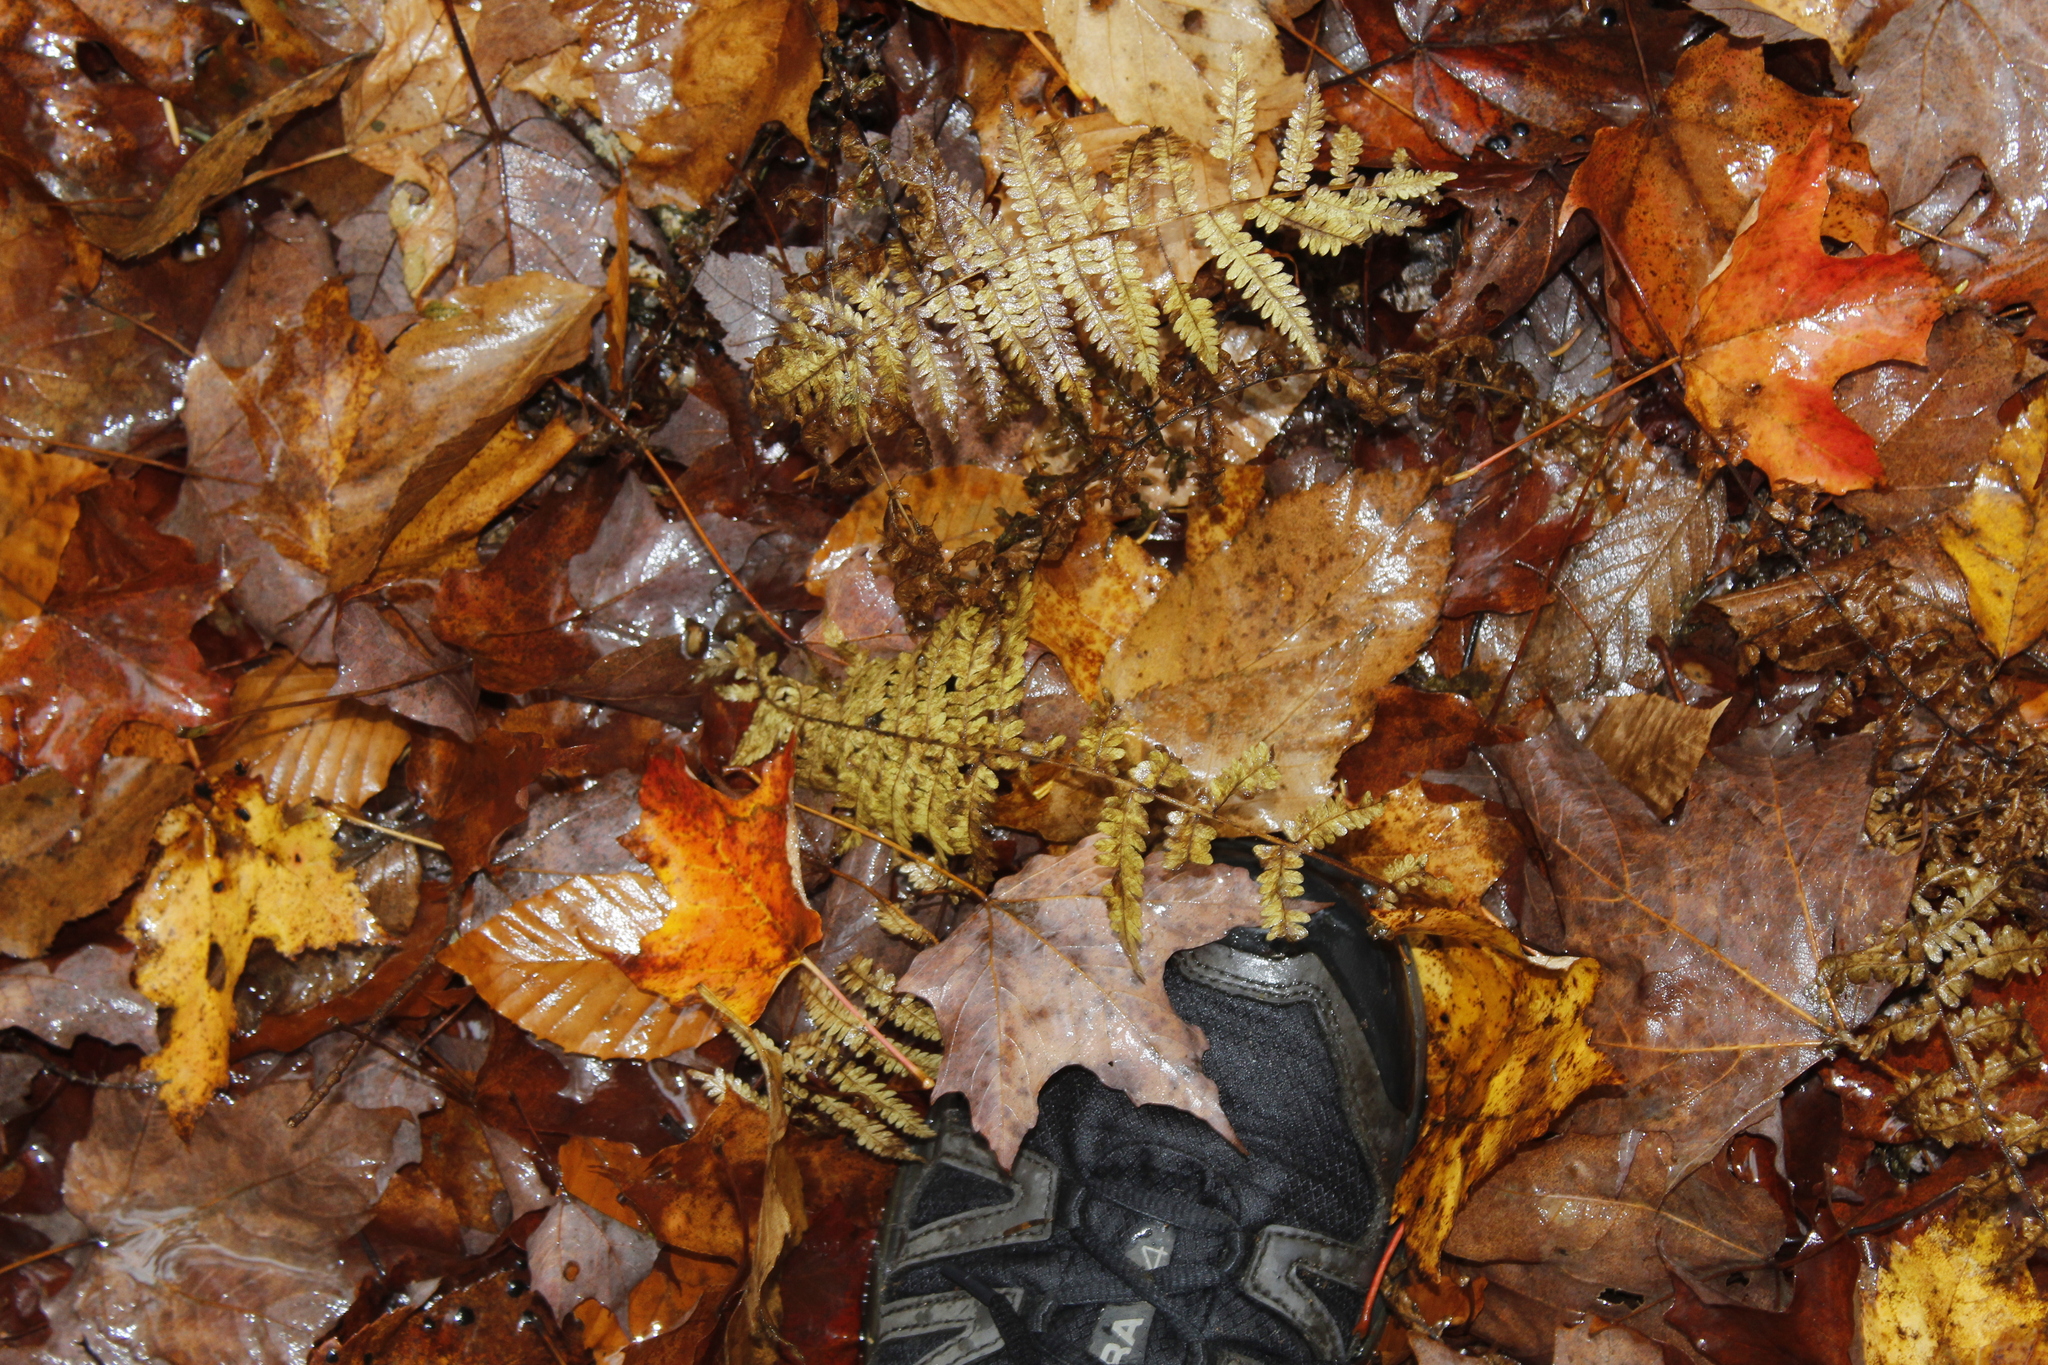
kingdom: Plantae
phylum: Tracheophyta
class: Polypodiopsida
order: Polypodiales
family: Thelypteridaceae
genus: Amauropelta
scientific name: Amauropelta noveboracensis
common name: New york fern
